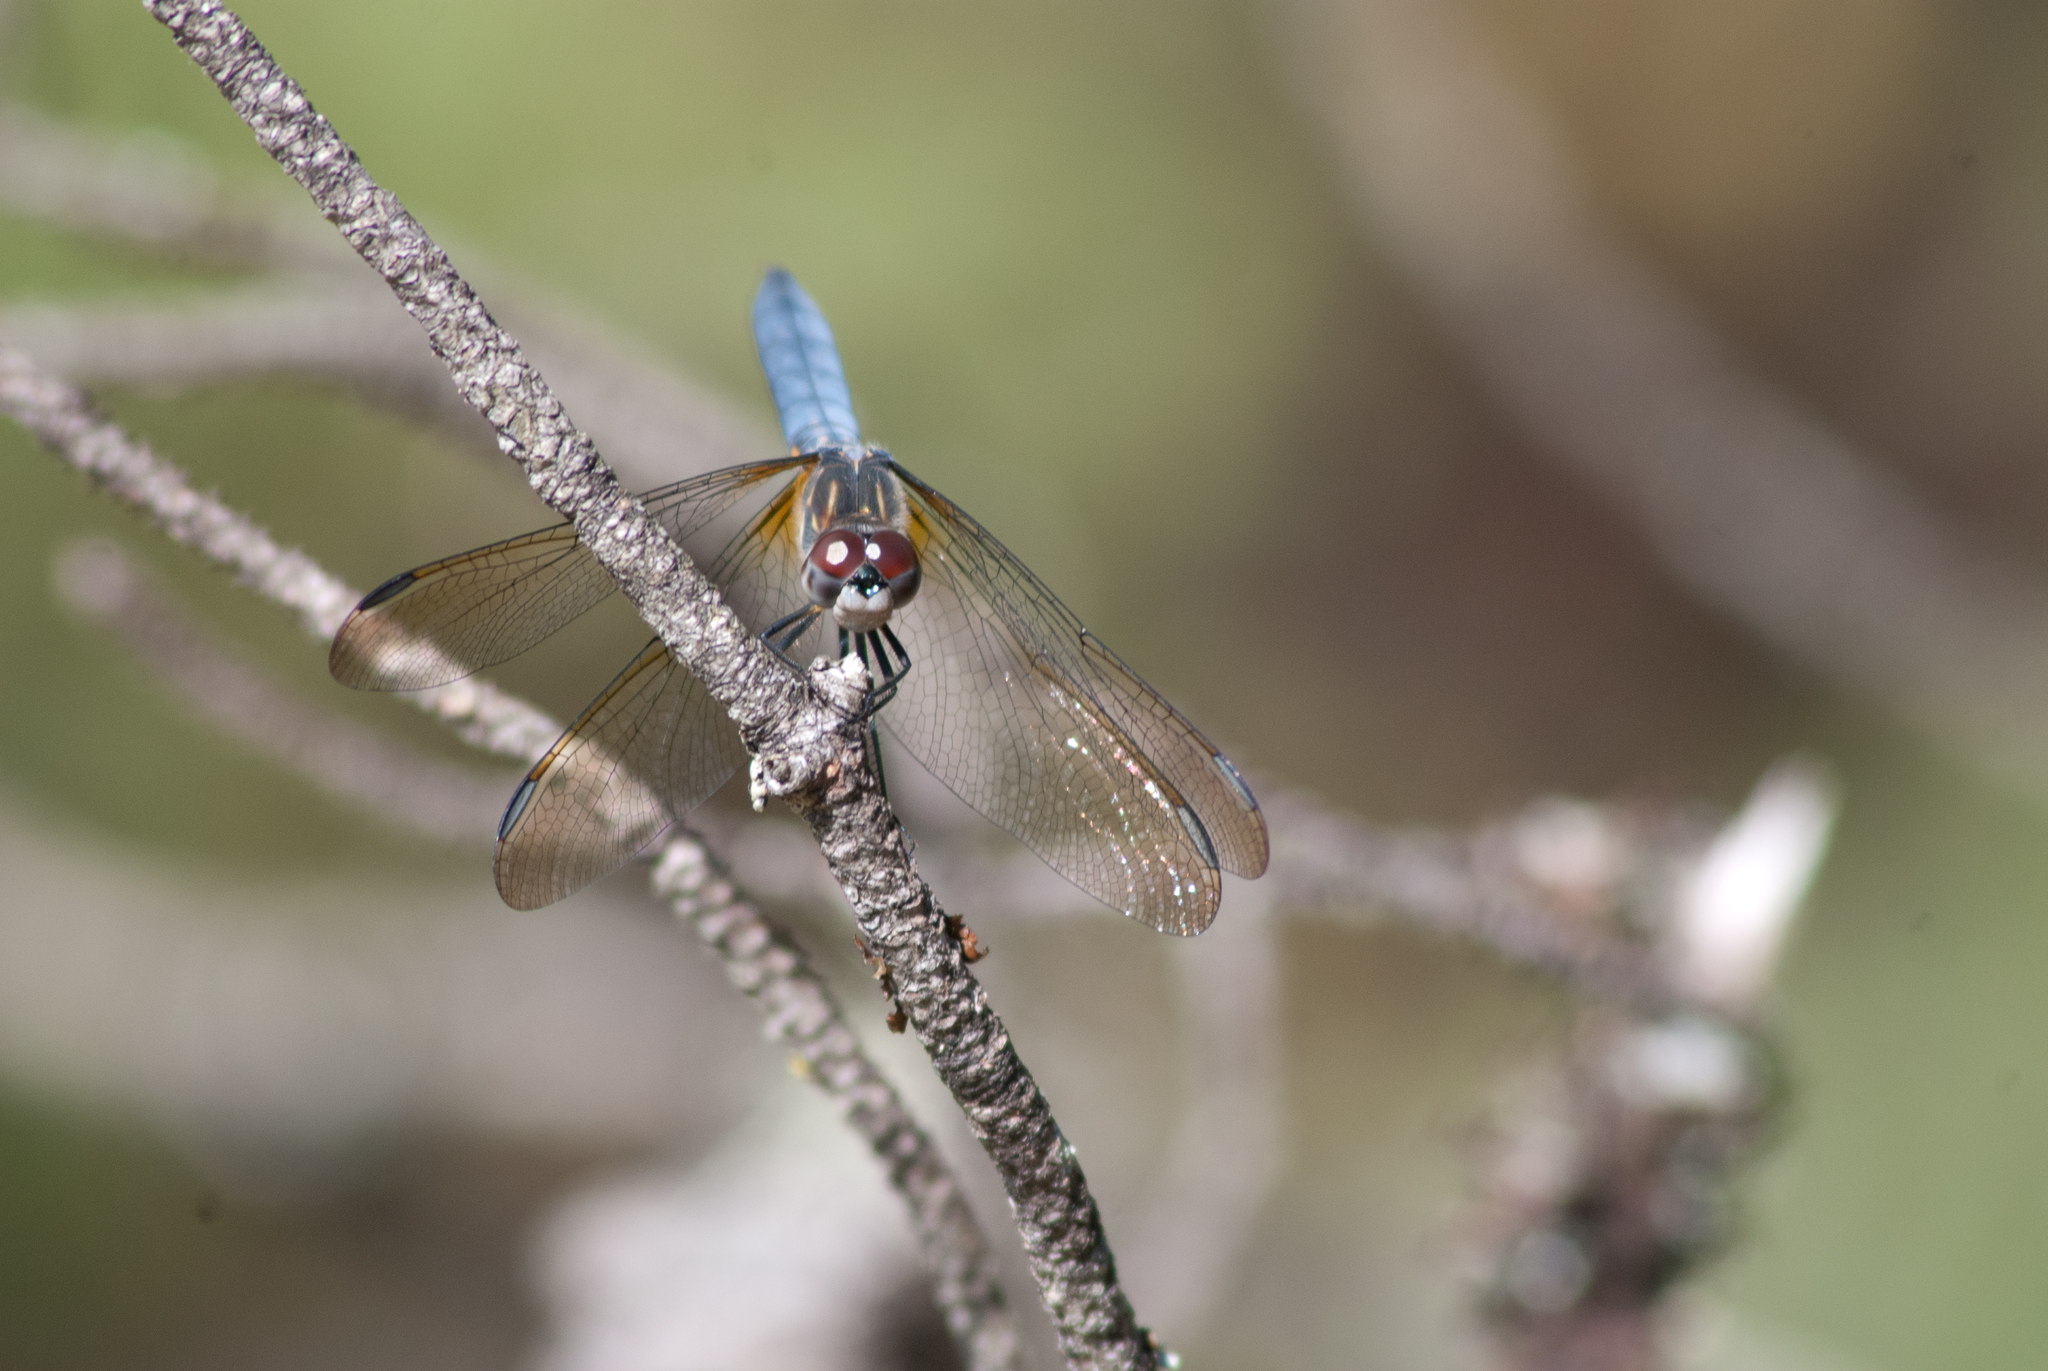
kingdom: Animalia
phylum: Arthropoda
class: Insecta
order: Odonata
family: Libellulidae
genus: Pachydiplax
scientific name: Pachydiplax longipennis
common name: Blue dasher
